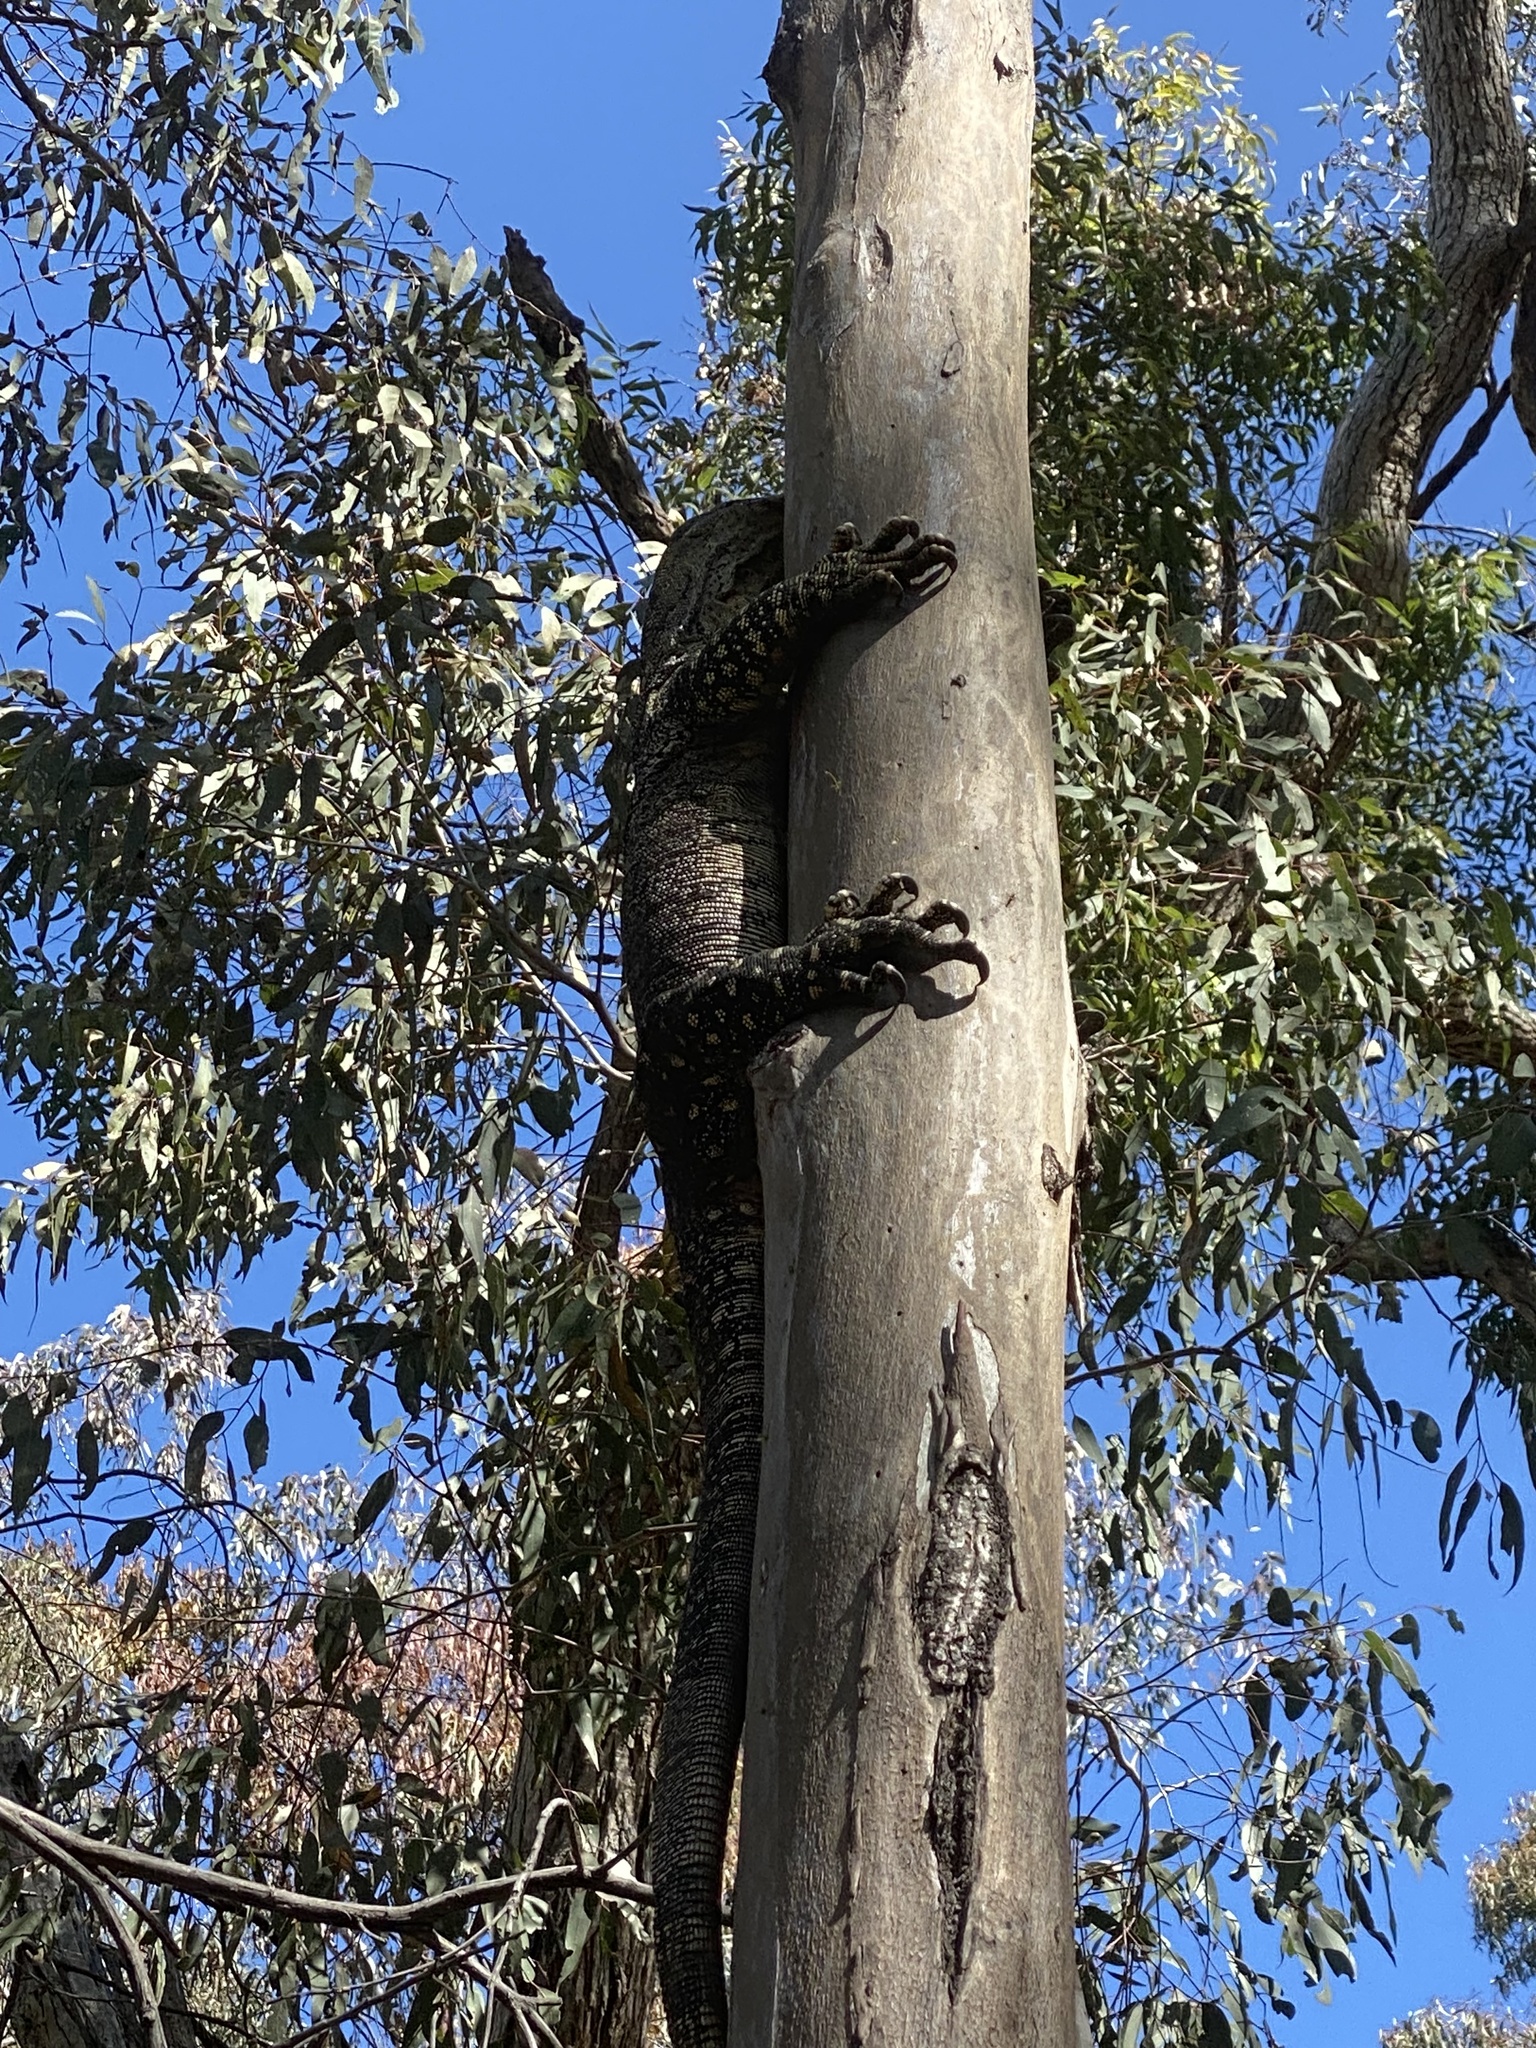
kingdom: Animalia
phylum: Chordata
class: Squamata
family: Varanidae
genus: Varanus
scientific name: Varanus varius
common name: Lace monitor
